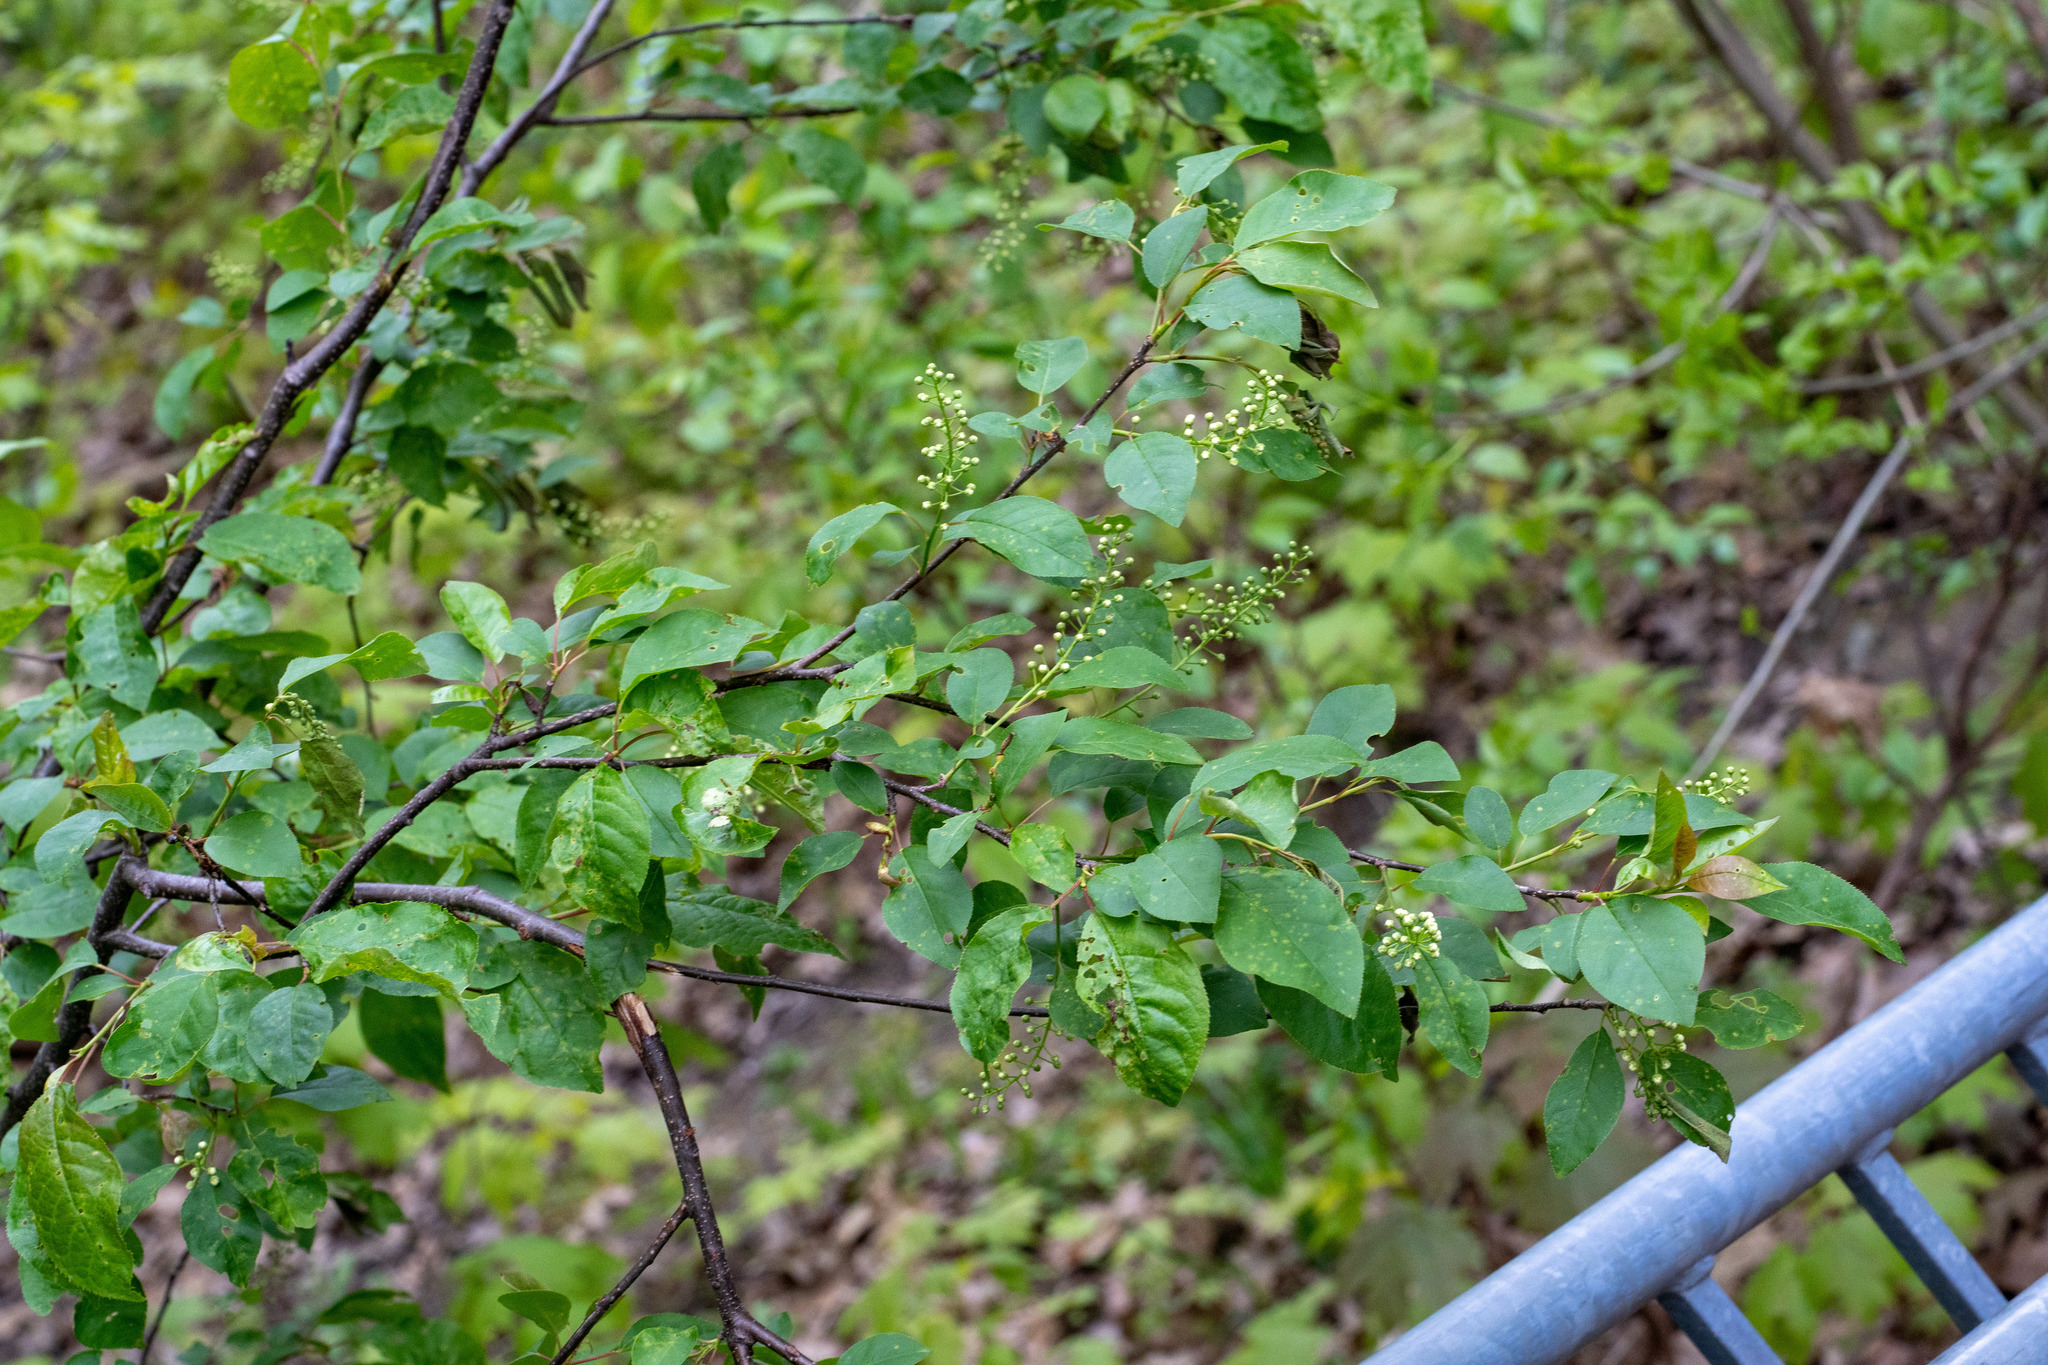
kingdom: Plantae
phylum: Tracheophyta
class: Magnoliopsida
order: Rosales
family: Rosaceae
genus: Prunus
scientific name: Prunus virginiana
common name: Chokecherry
